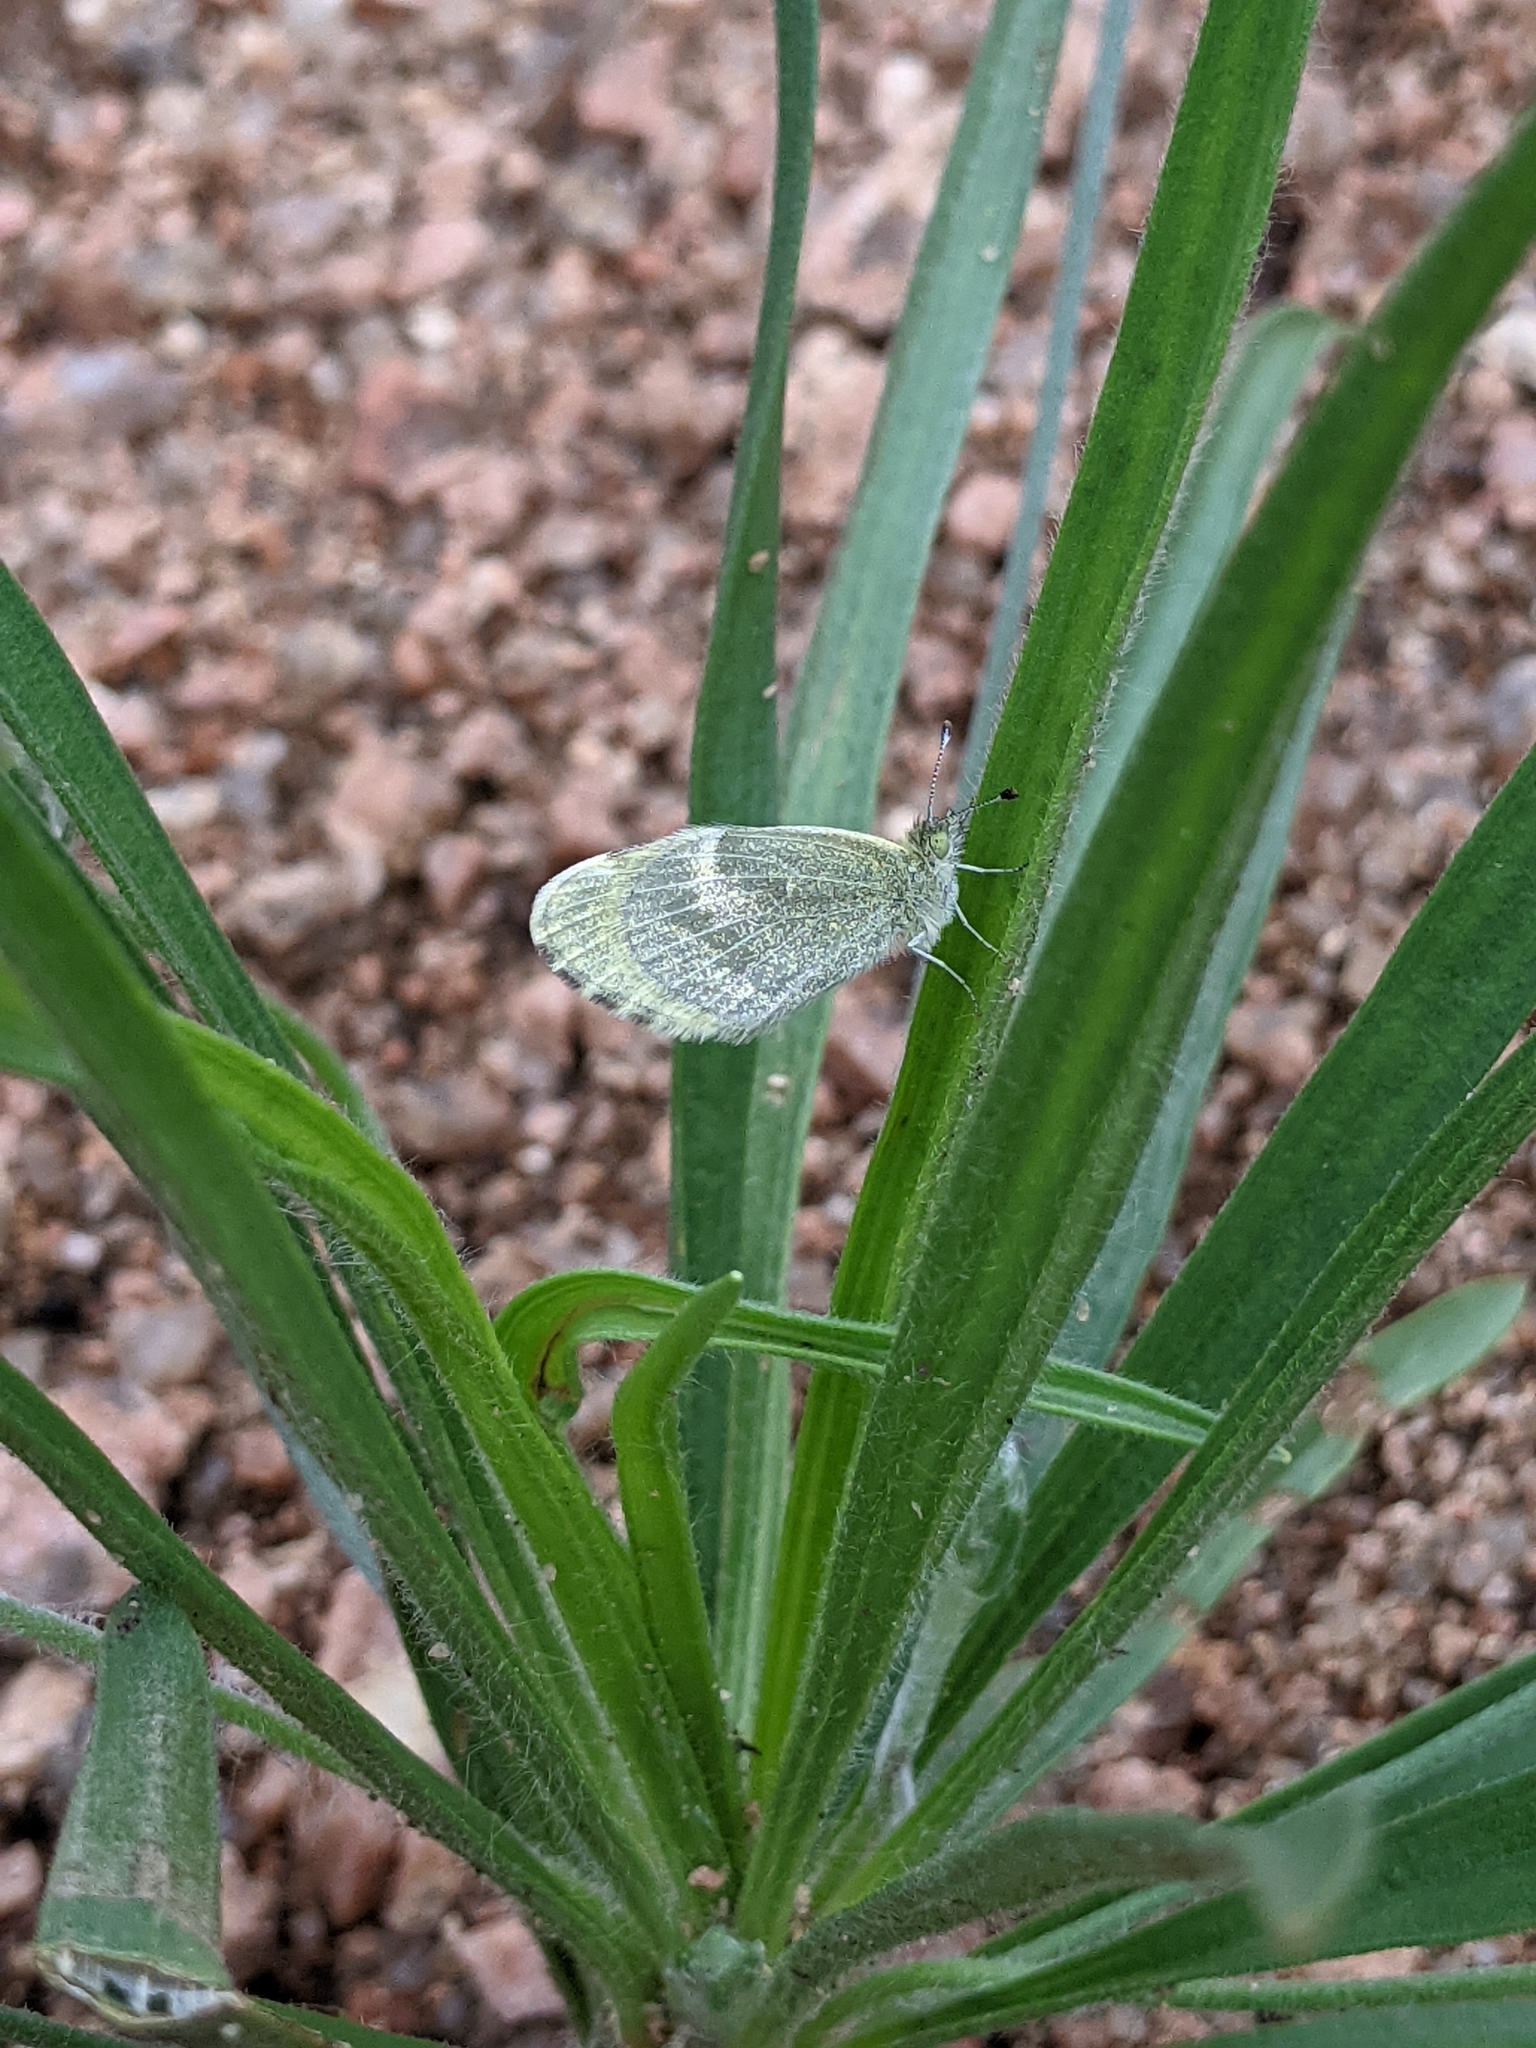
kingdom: Animalia
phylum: Arthropoda
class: Insecta
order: Lepidoptera
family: Pieridae
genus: Nathalis
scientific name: Nathalis iole
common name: Dainty sulphur
